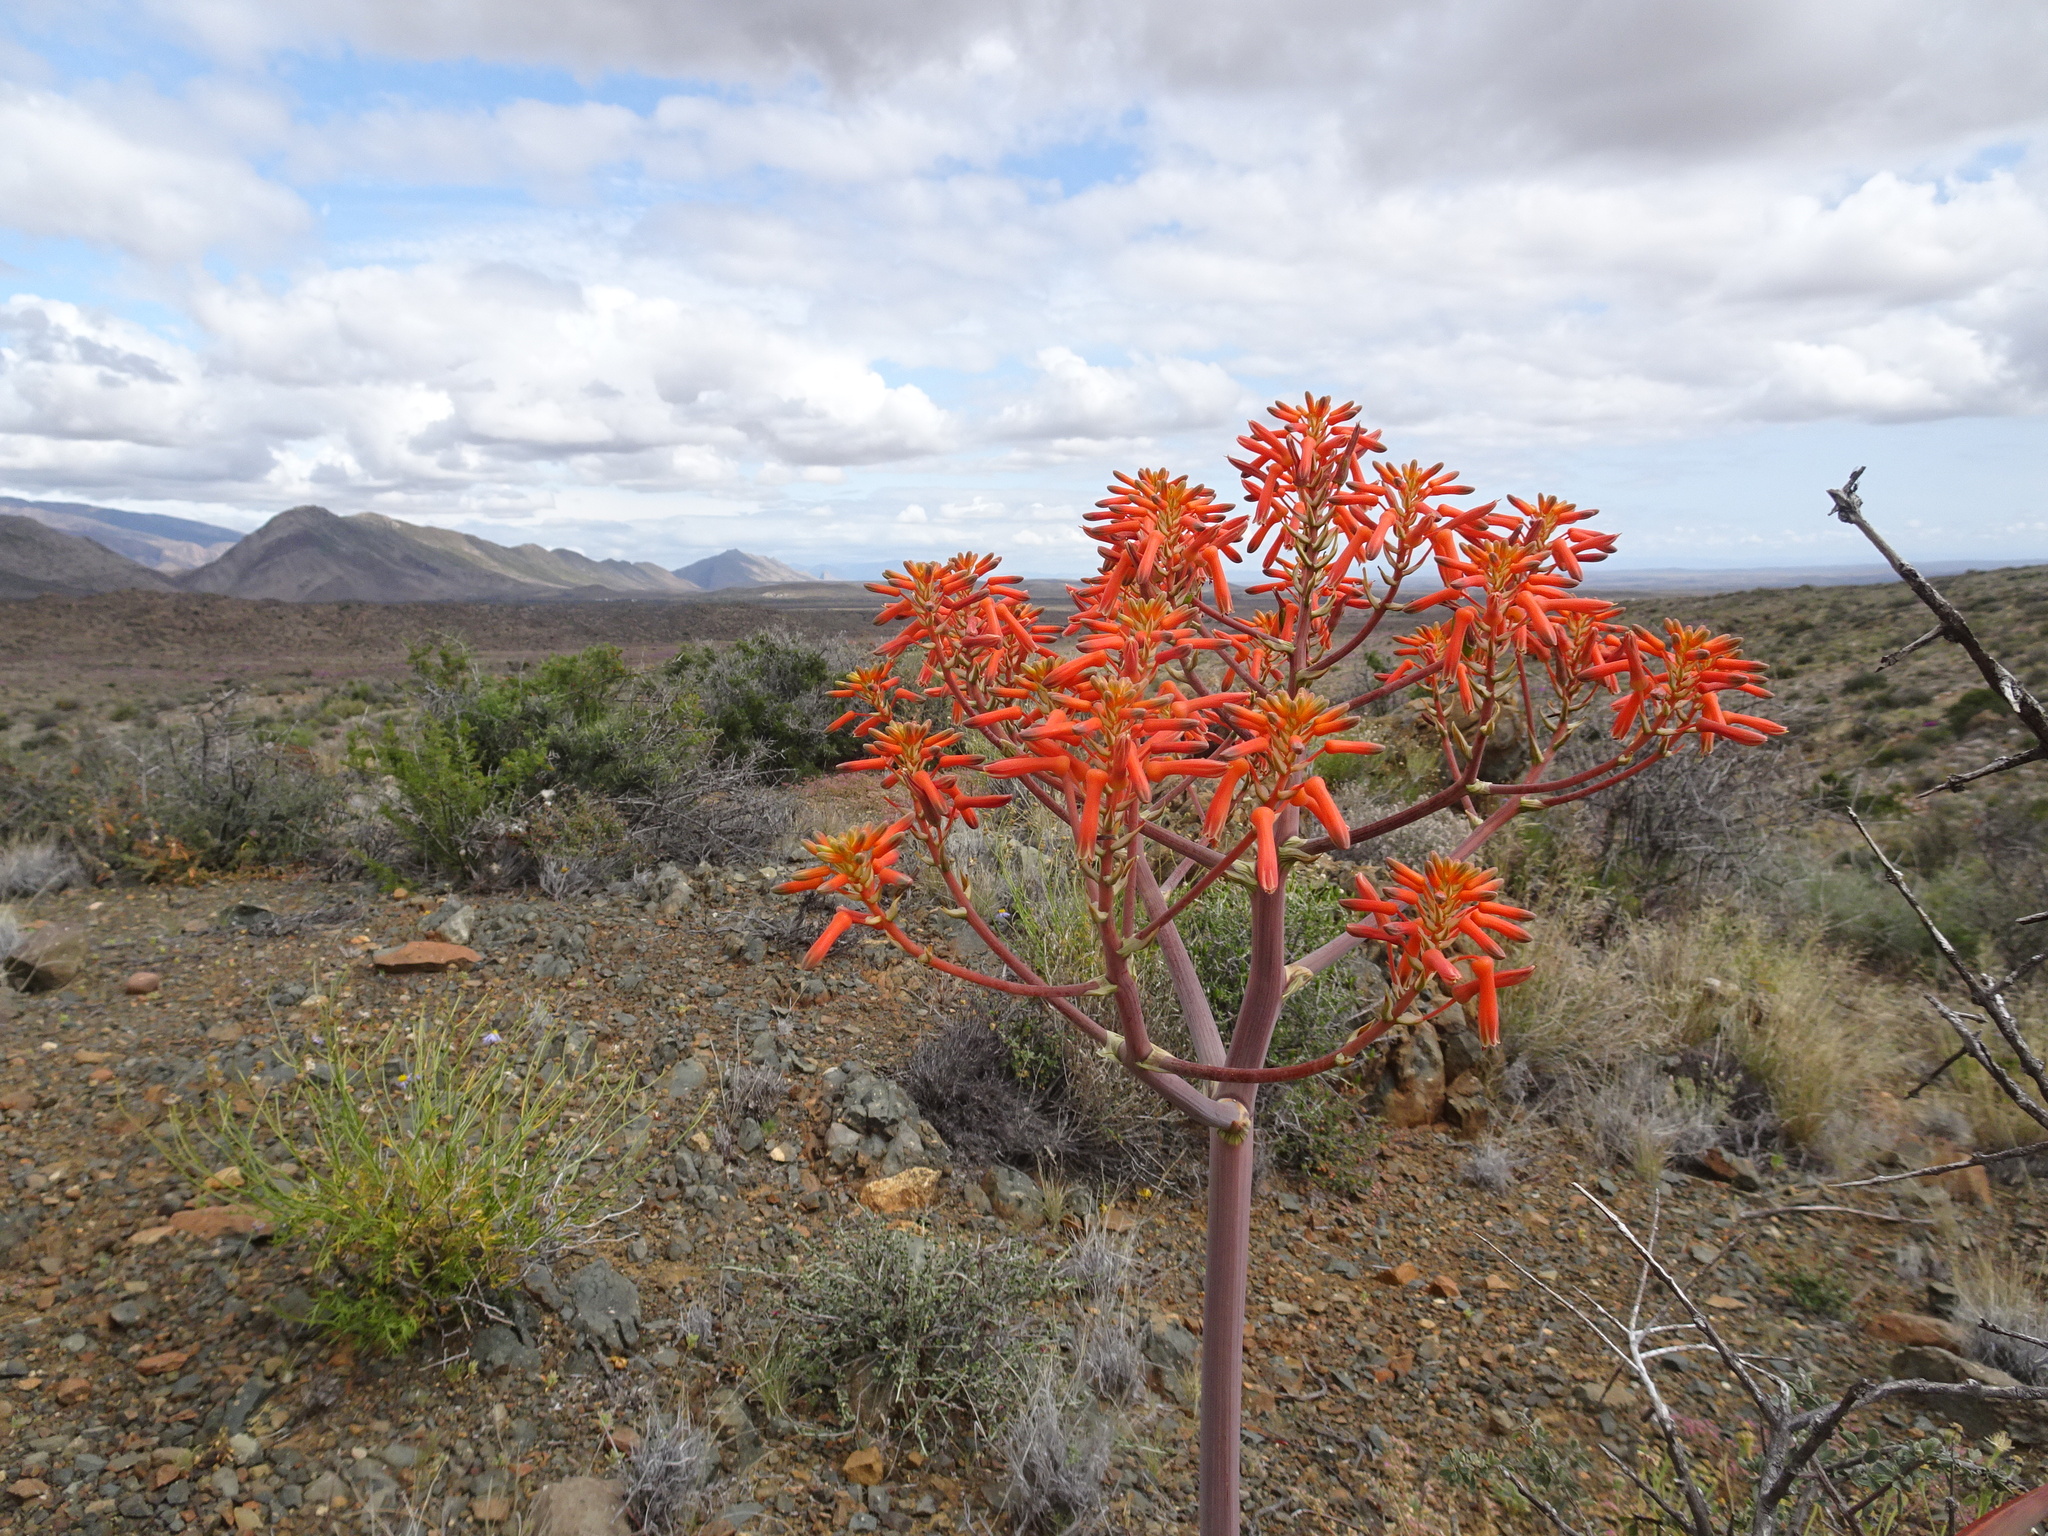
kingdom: Plantae
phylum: Tracheophyta
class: Liliopsida
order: Asparagales
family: Asphodelaceae
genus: Aloe
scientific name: Aloe striata
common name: Coral aloe
